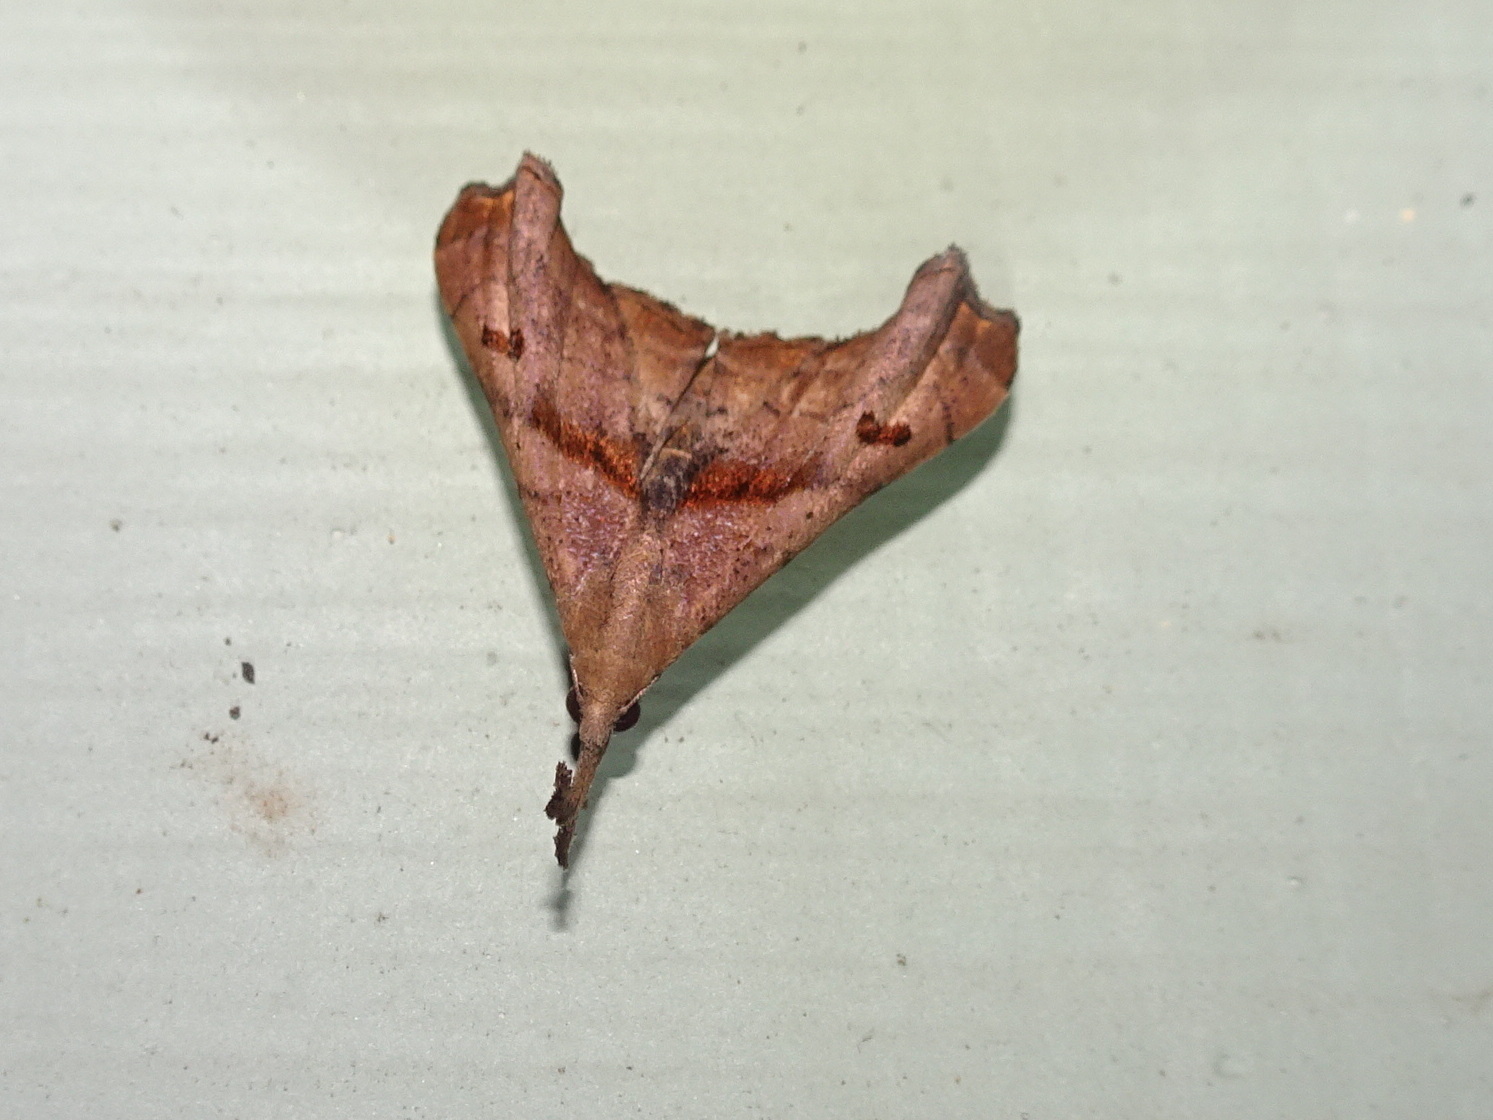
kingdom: Animalia
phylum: Arthropoda
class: Insecta
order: Lepidoptera
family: Erebidae
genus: Palthis
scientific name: Palthis angulalis
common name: Dark-spotted palthis moth
